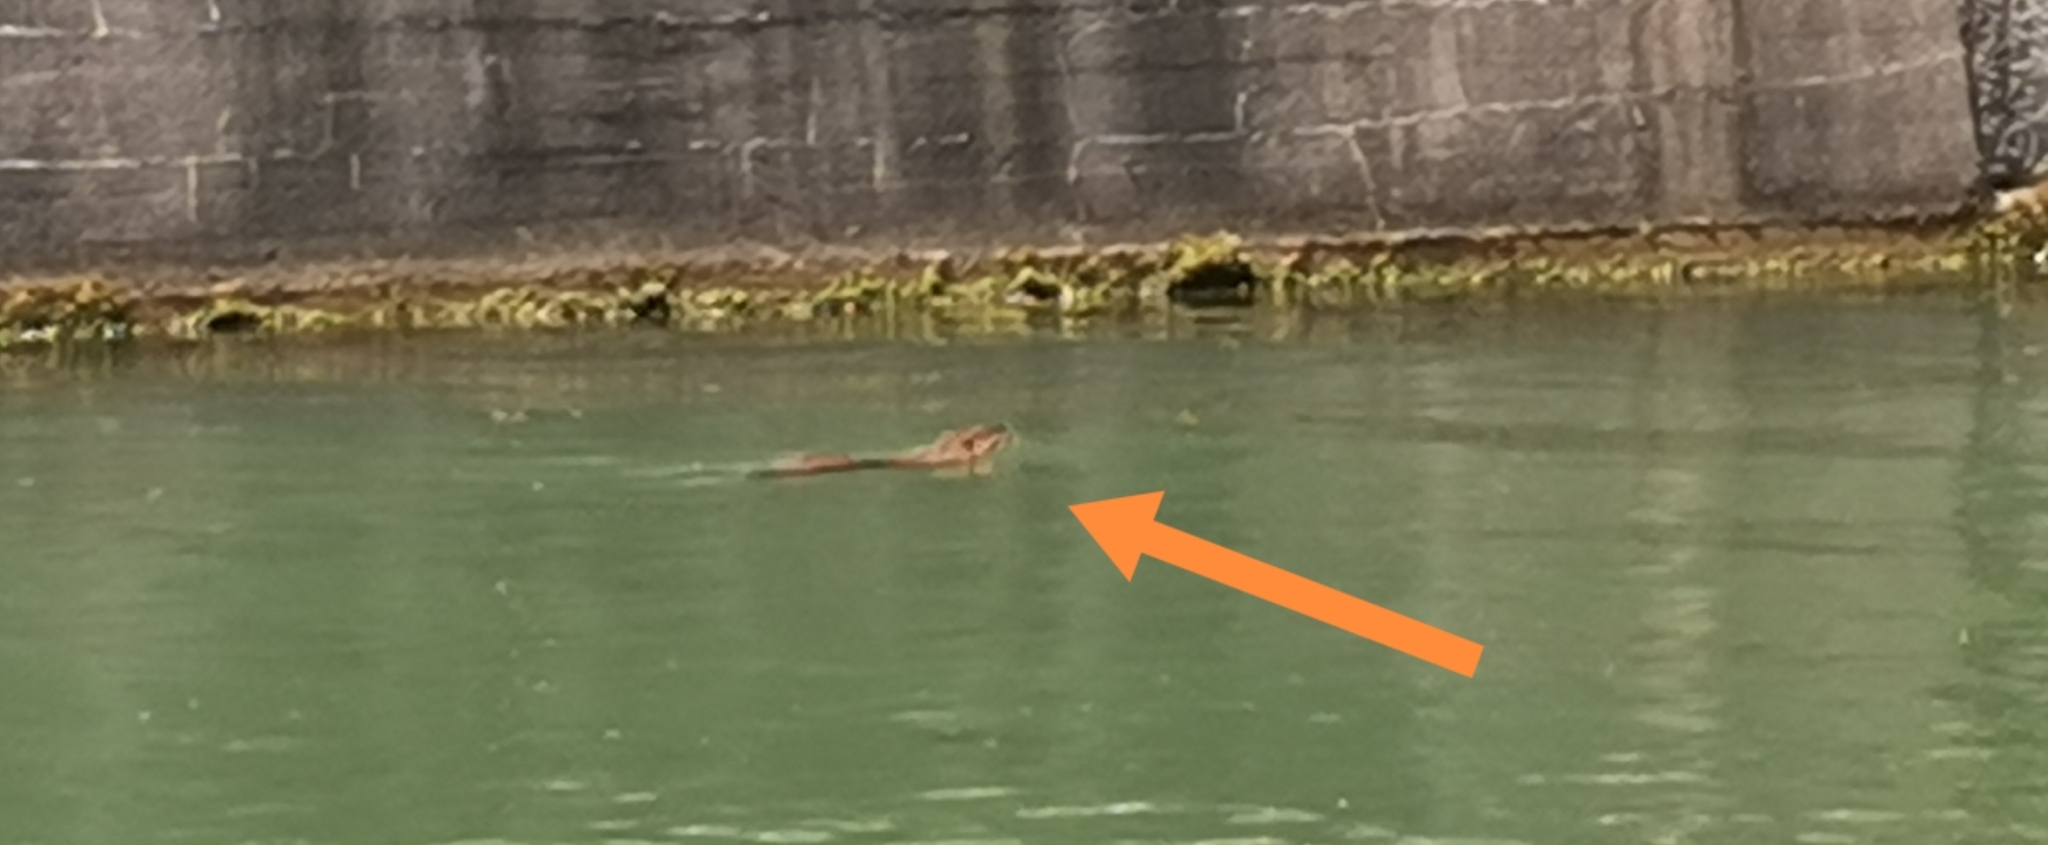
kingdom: Animalia
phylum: Chordata
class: Mammalia
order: Rodentia
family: Myocastoridae
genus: Myocastor
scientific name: Myocastor coypus
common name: Coypu
